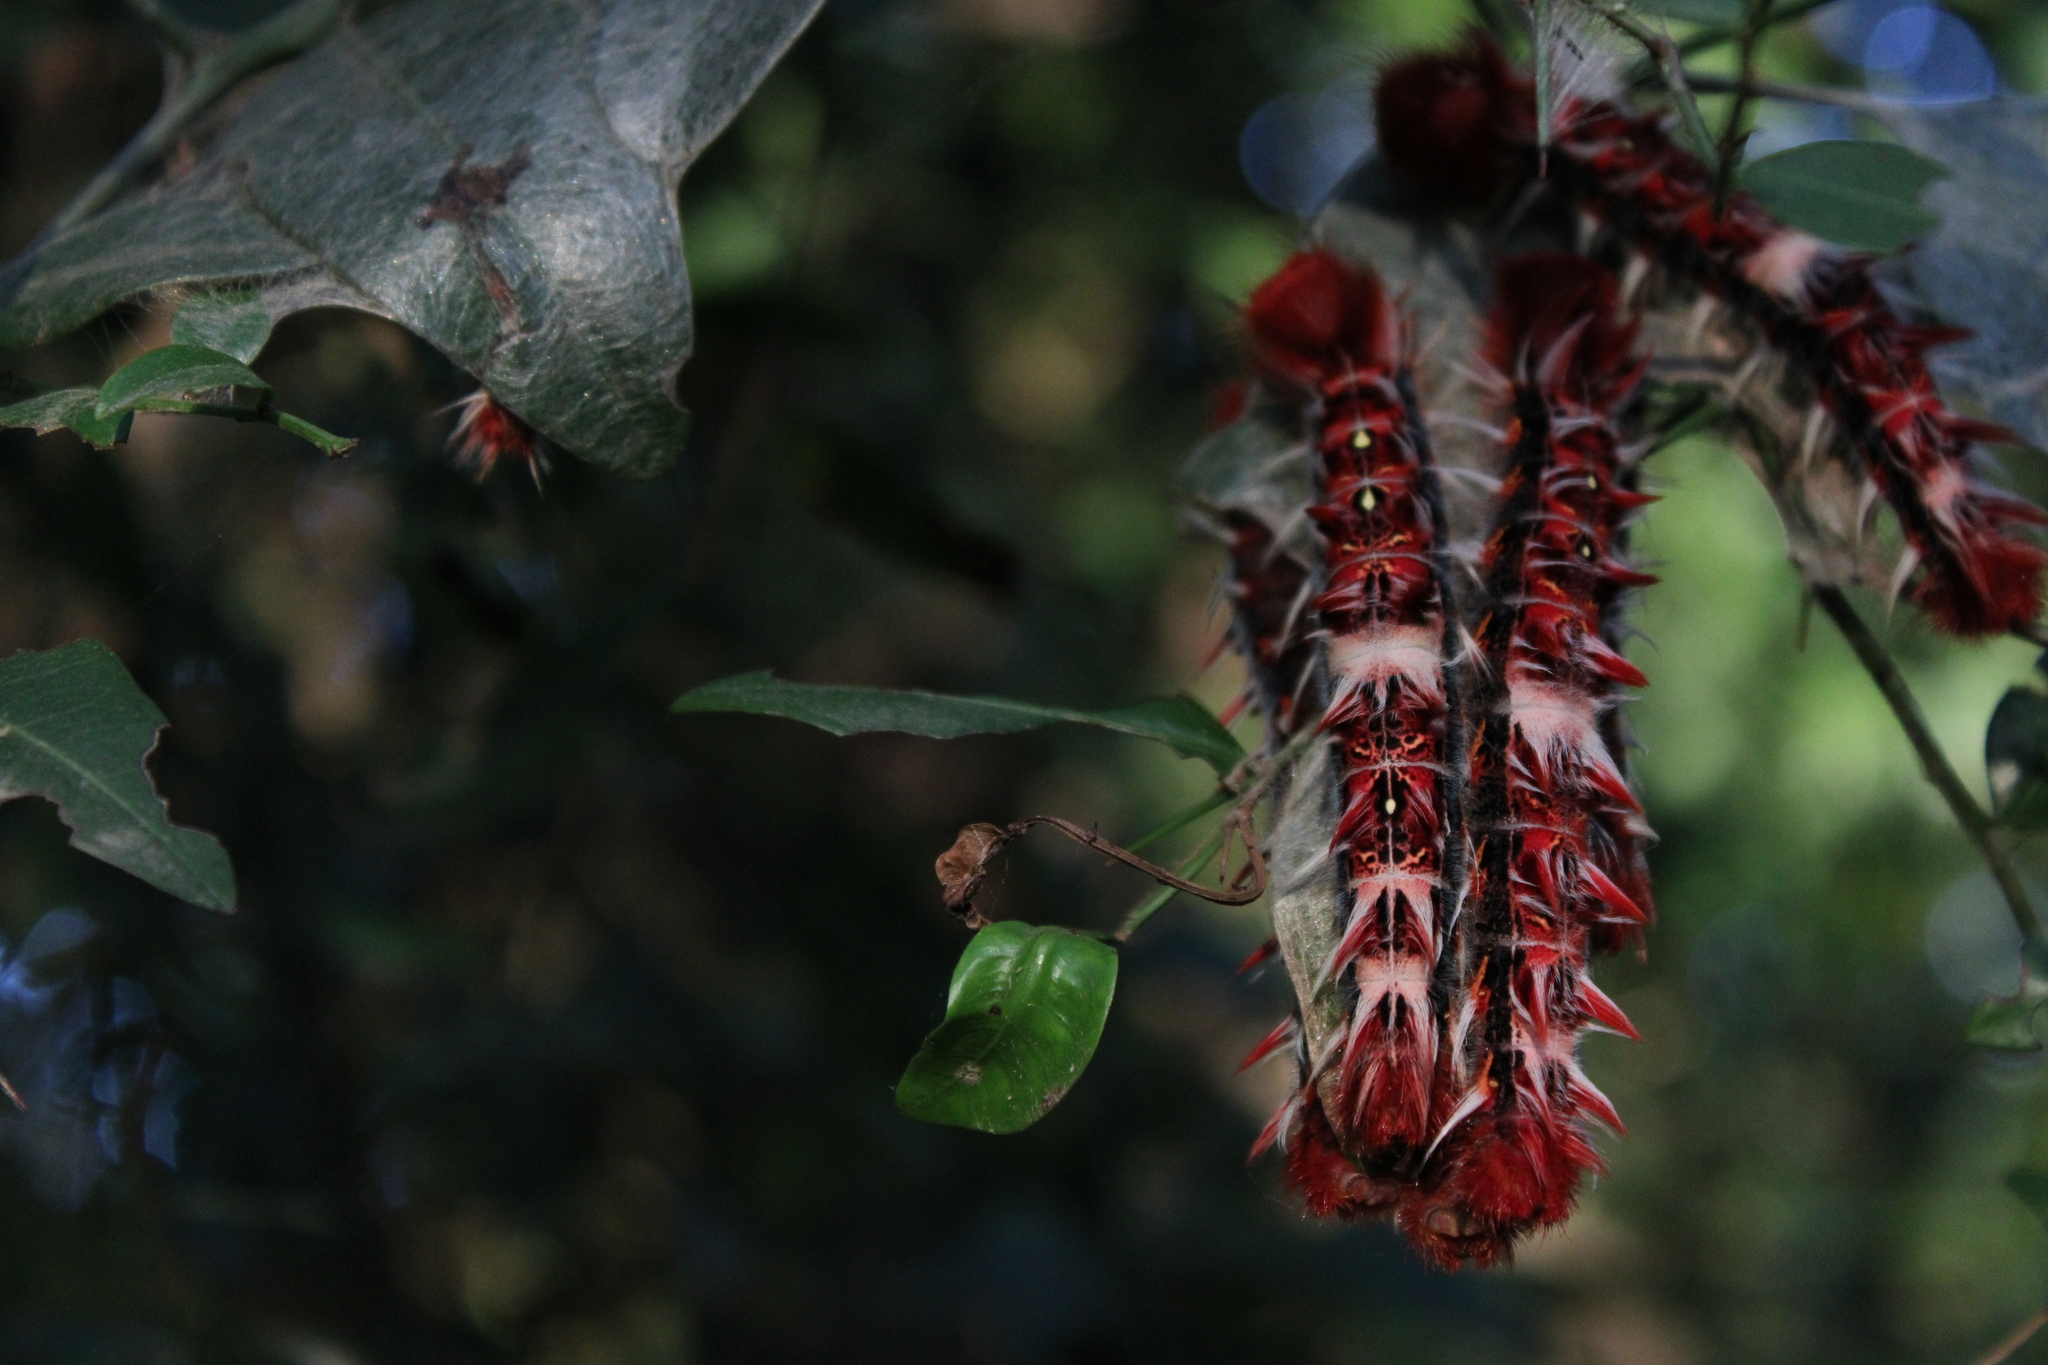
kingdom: Animalia
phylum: Arthropoda
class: Insecta
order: Lepidoptera
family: Nymphalidae
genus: Morpho
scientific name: Morpho epistrophus
